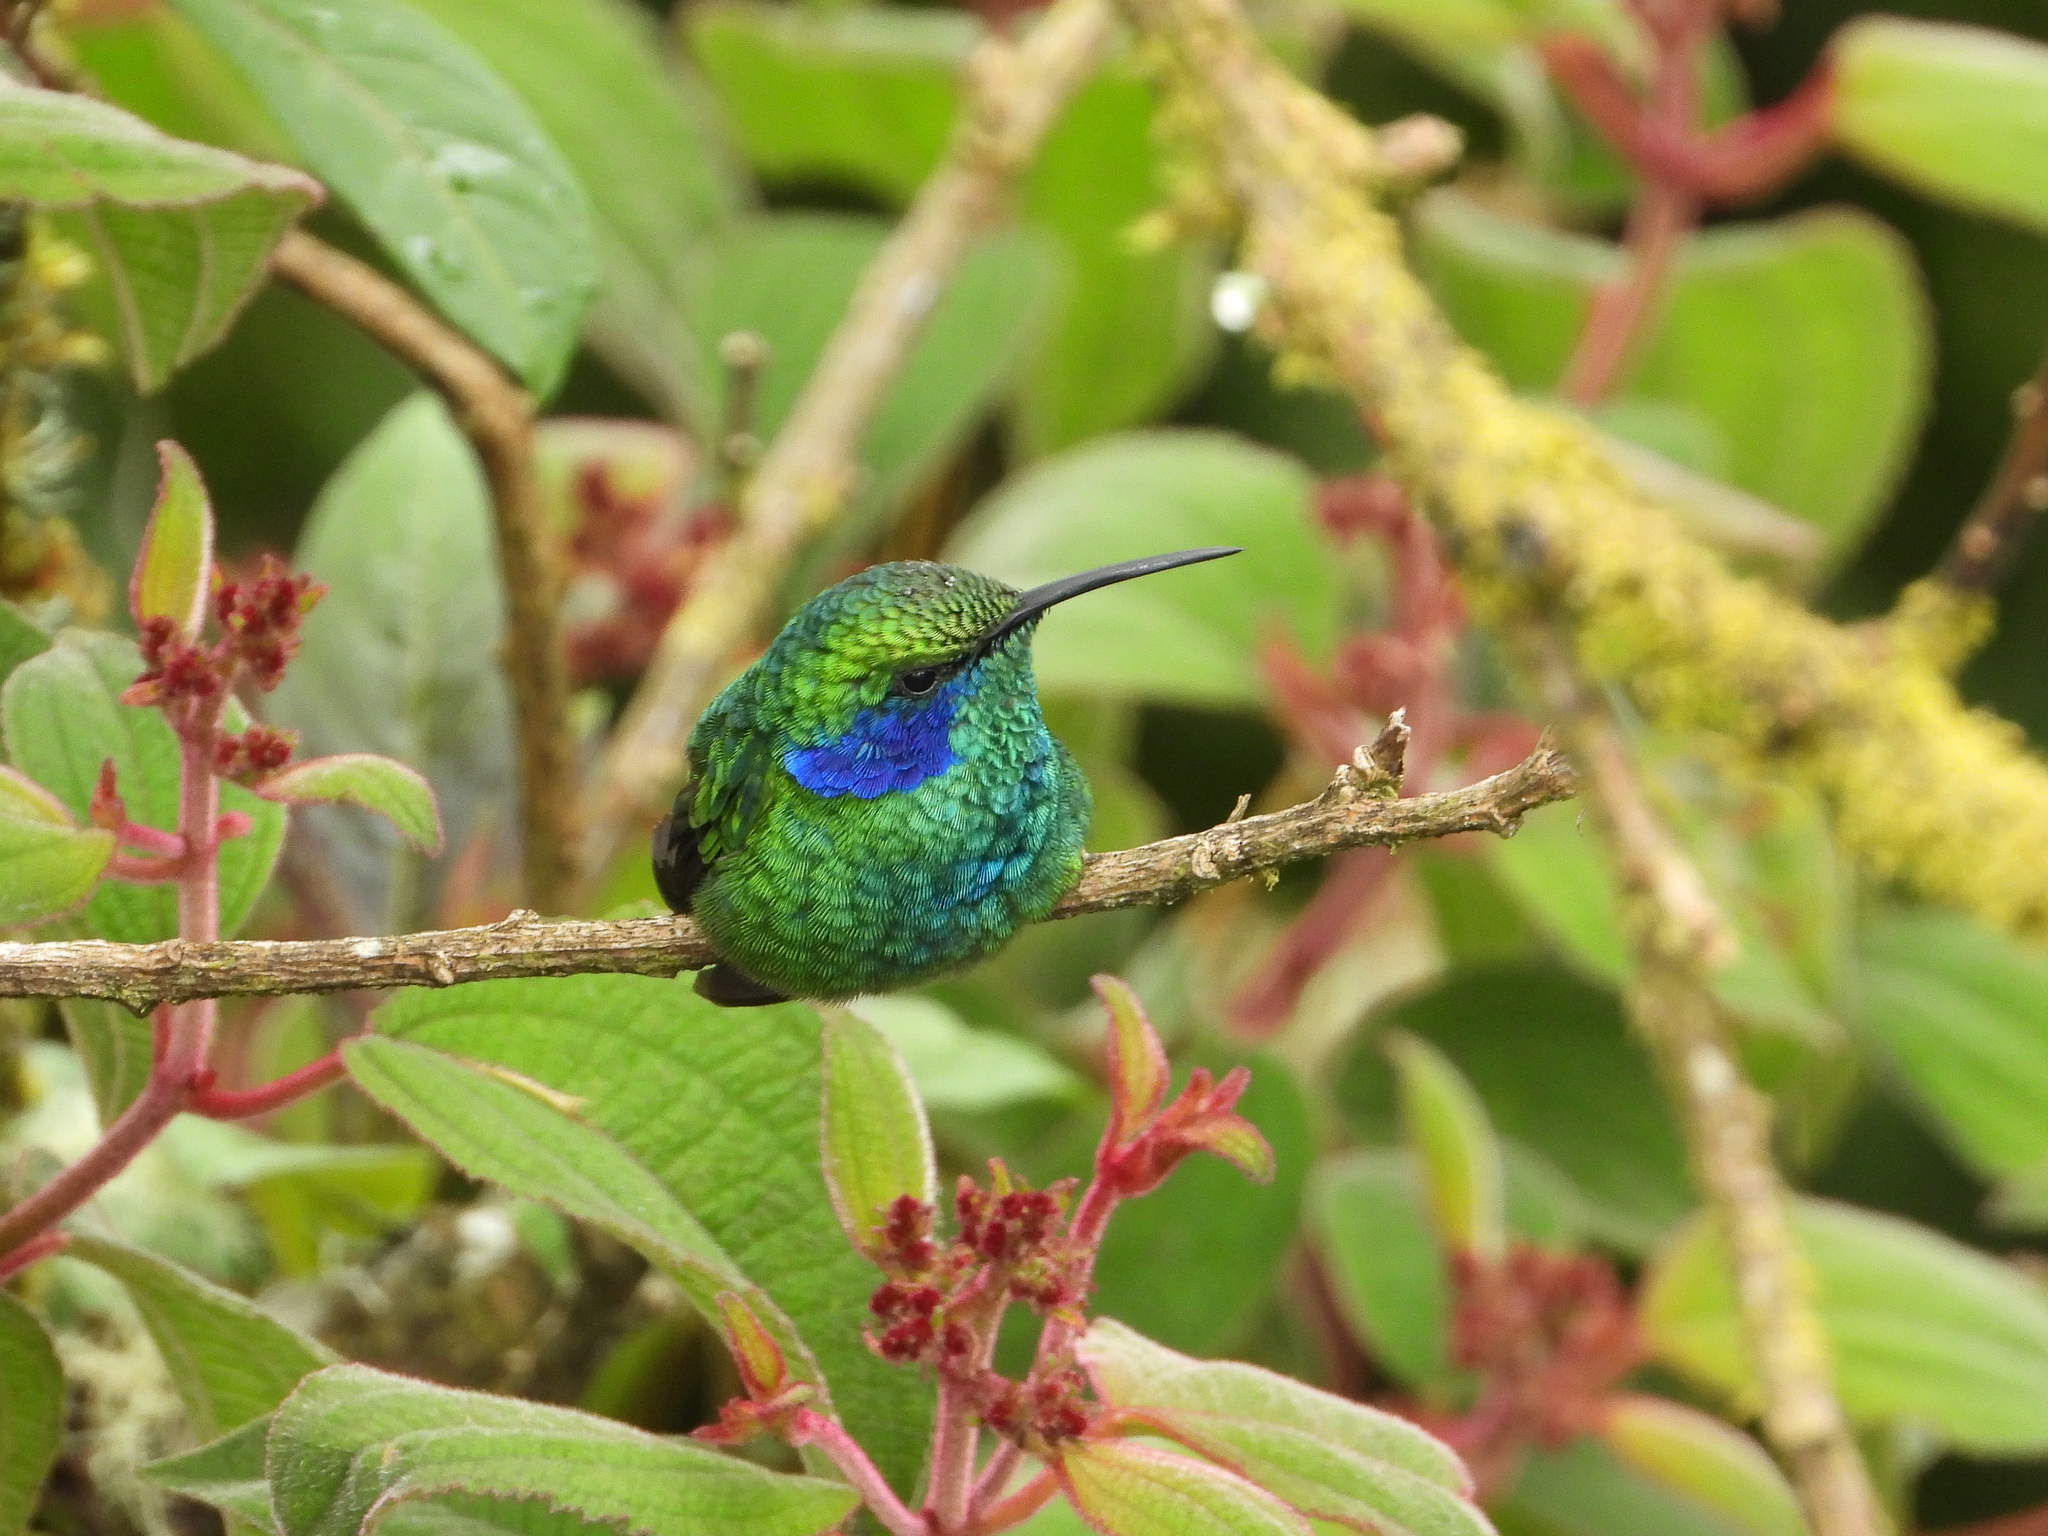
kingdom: Animalia
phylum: Chordata
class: Aves
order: Apodiformes
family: Trochilidae
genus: Colibri
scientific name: Colibri cyanotus
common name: Lesser violetear
